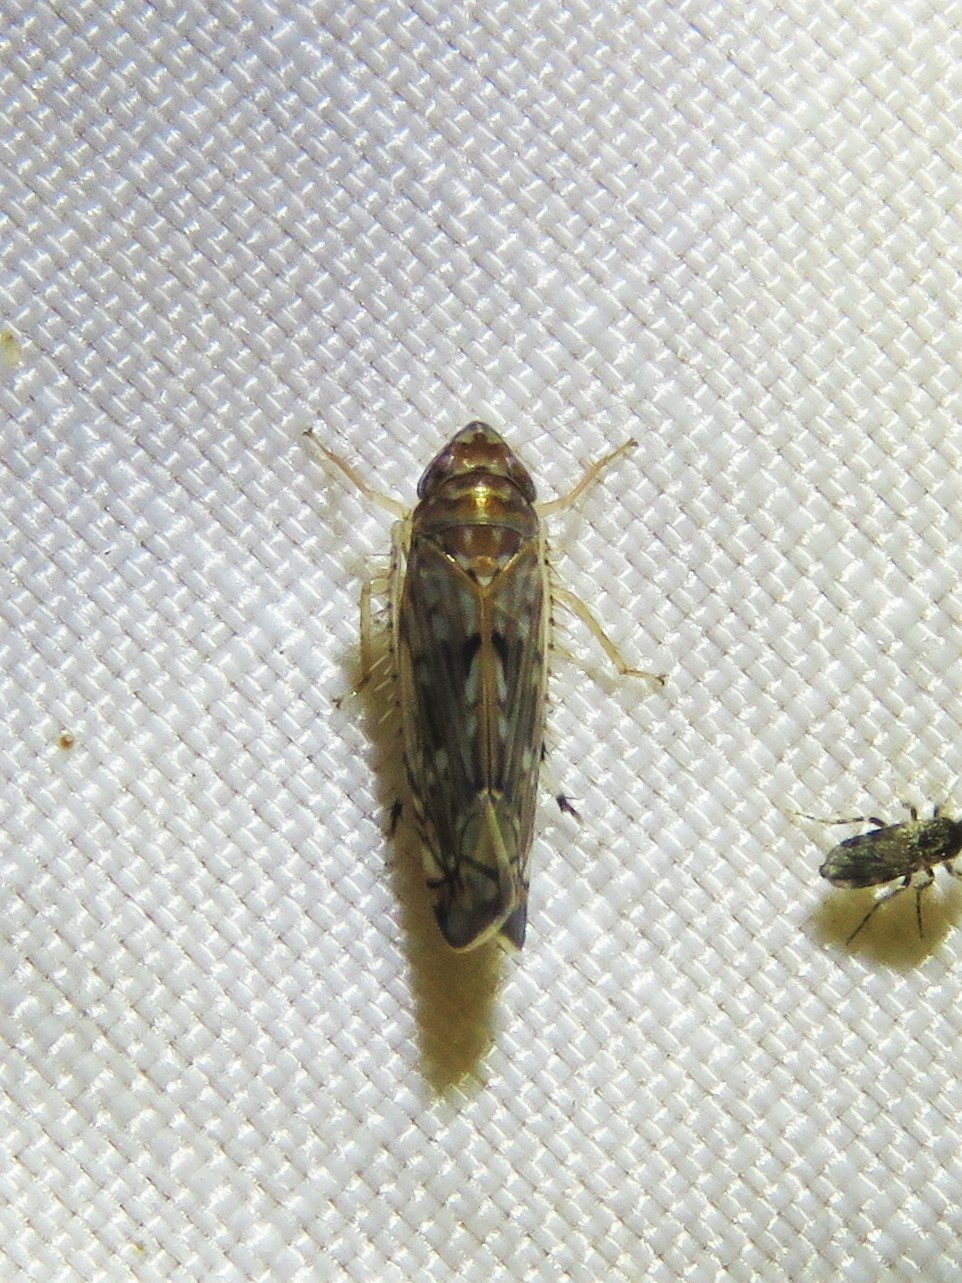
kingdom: Animalia
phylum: Arthropoda
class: Insecta
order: Hemiptera
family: Cicadellidae
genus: Scaphoideus
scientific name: Scaphoideus productus
